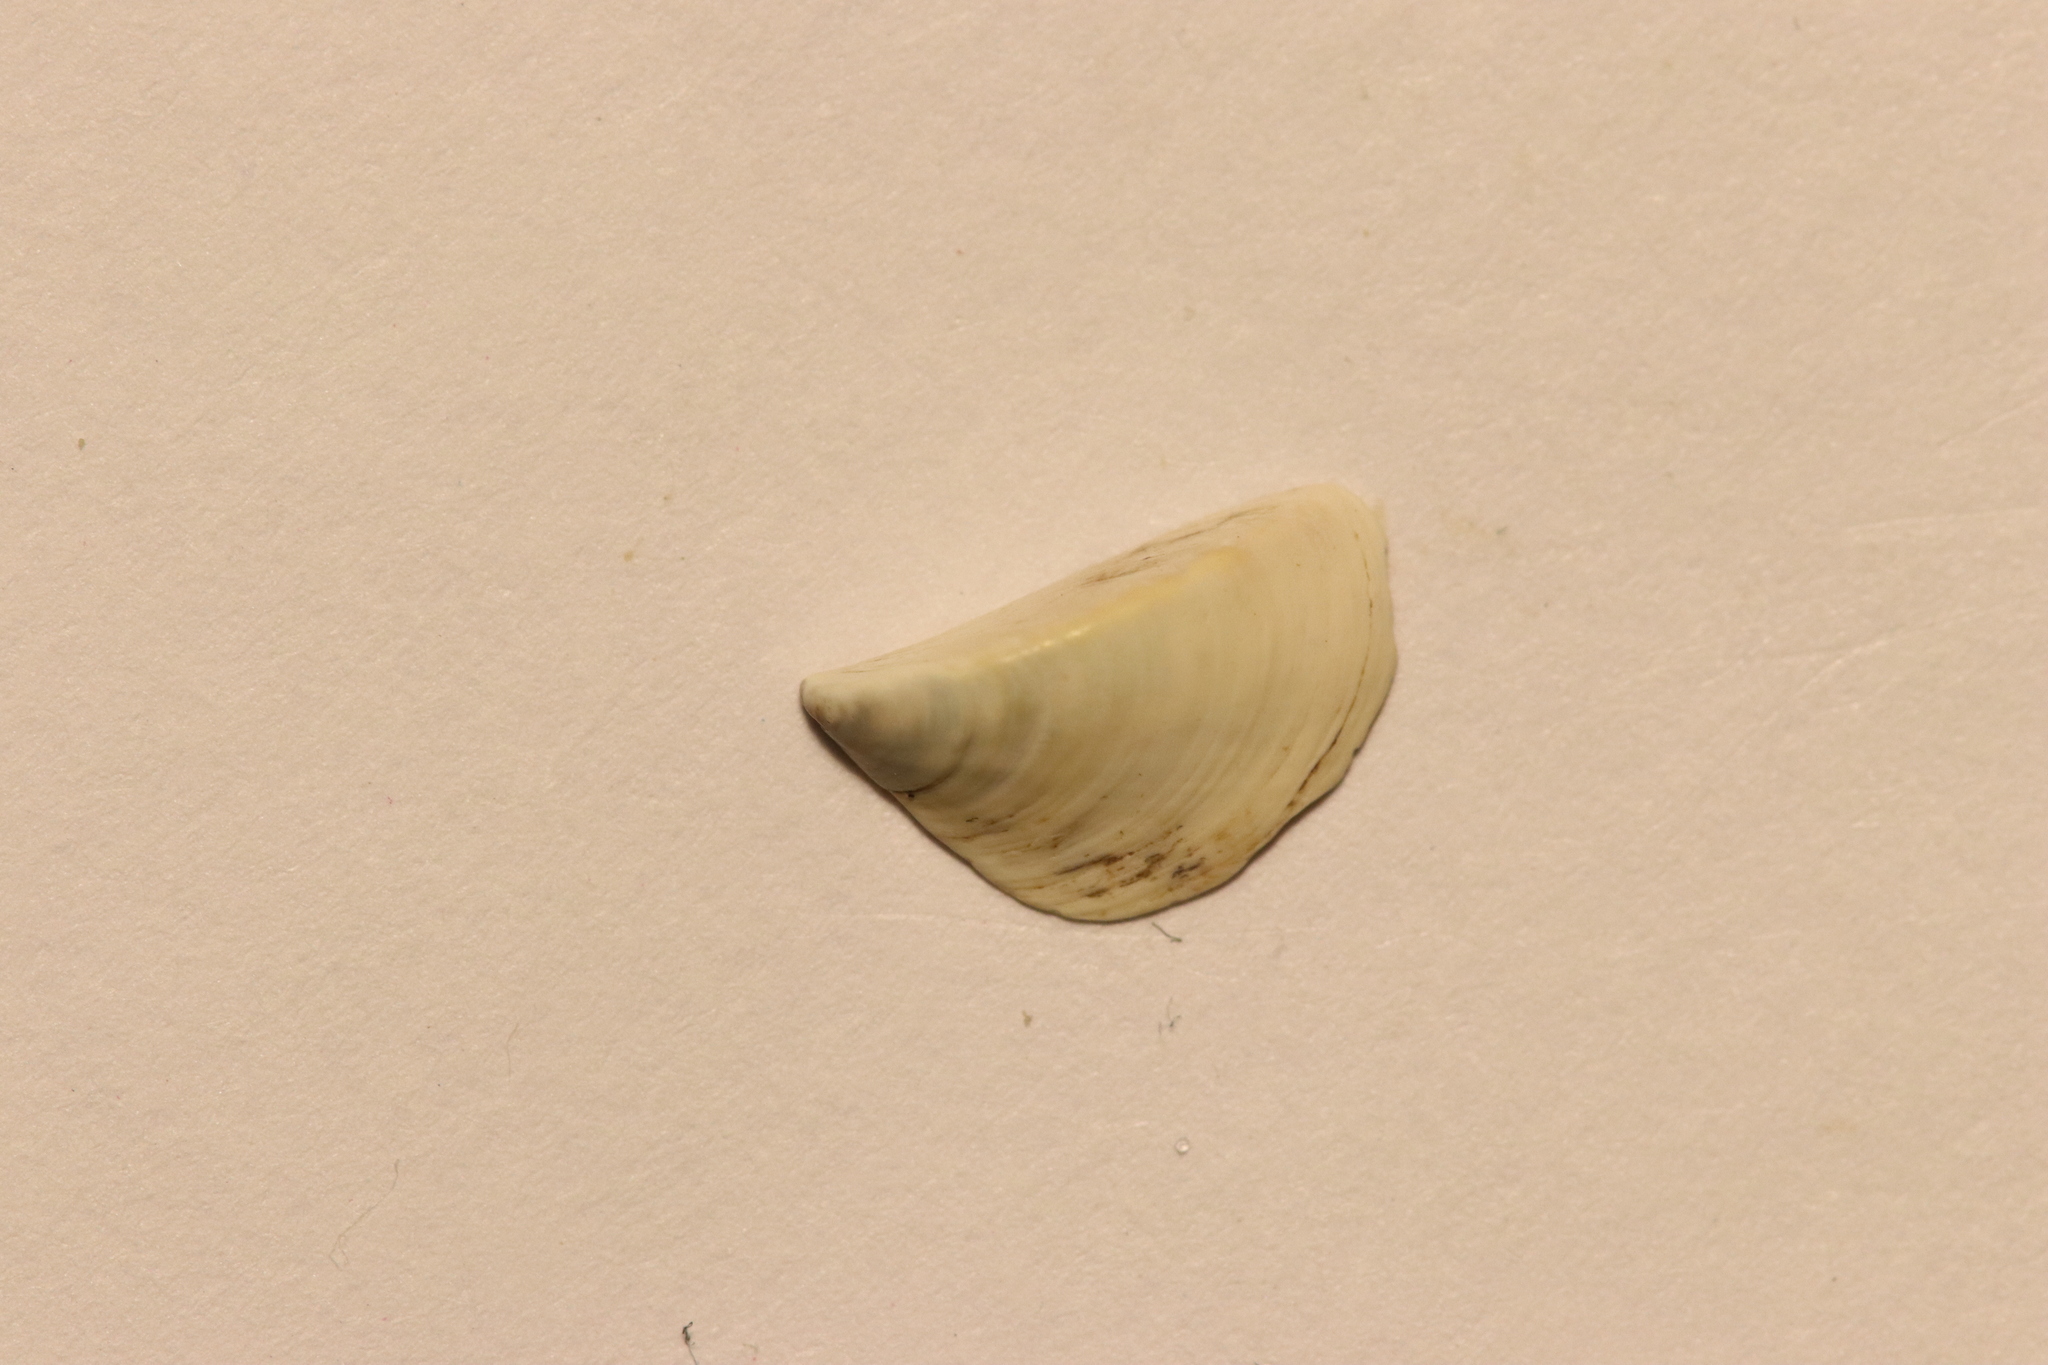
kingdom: Animalia
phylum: Mollusca
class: Bivalvia
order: Myida
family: Dreissenidae
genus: Dreissena
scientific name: Dreissena polymorpha
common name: Zebra mussel
